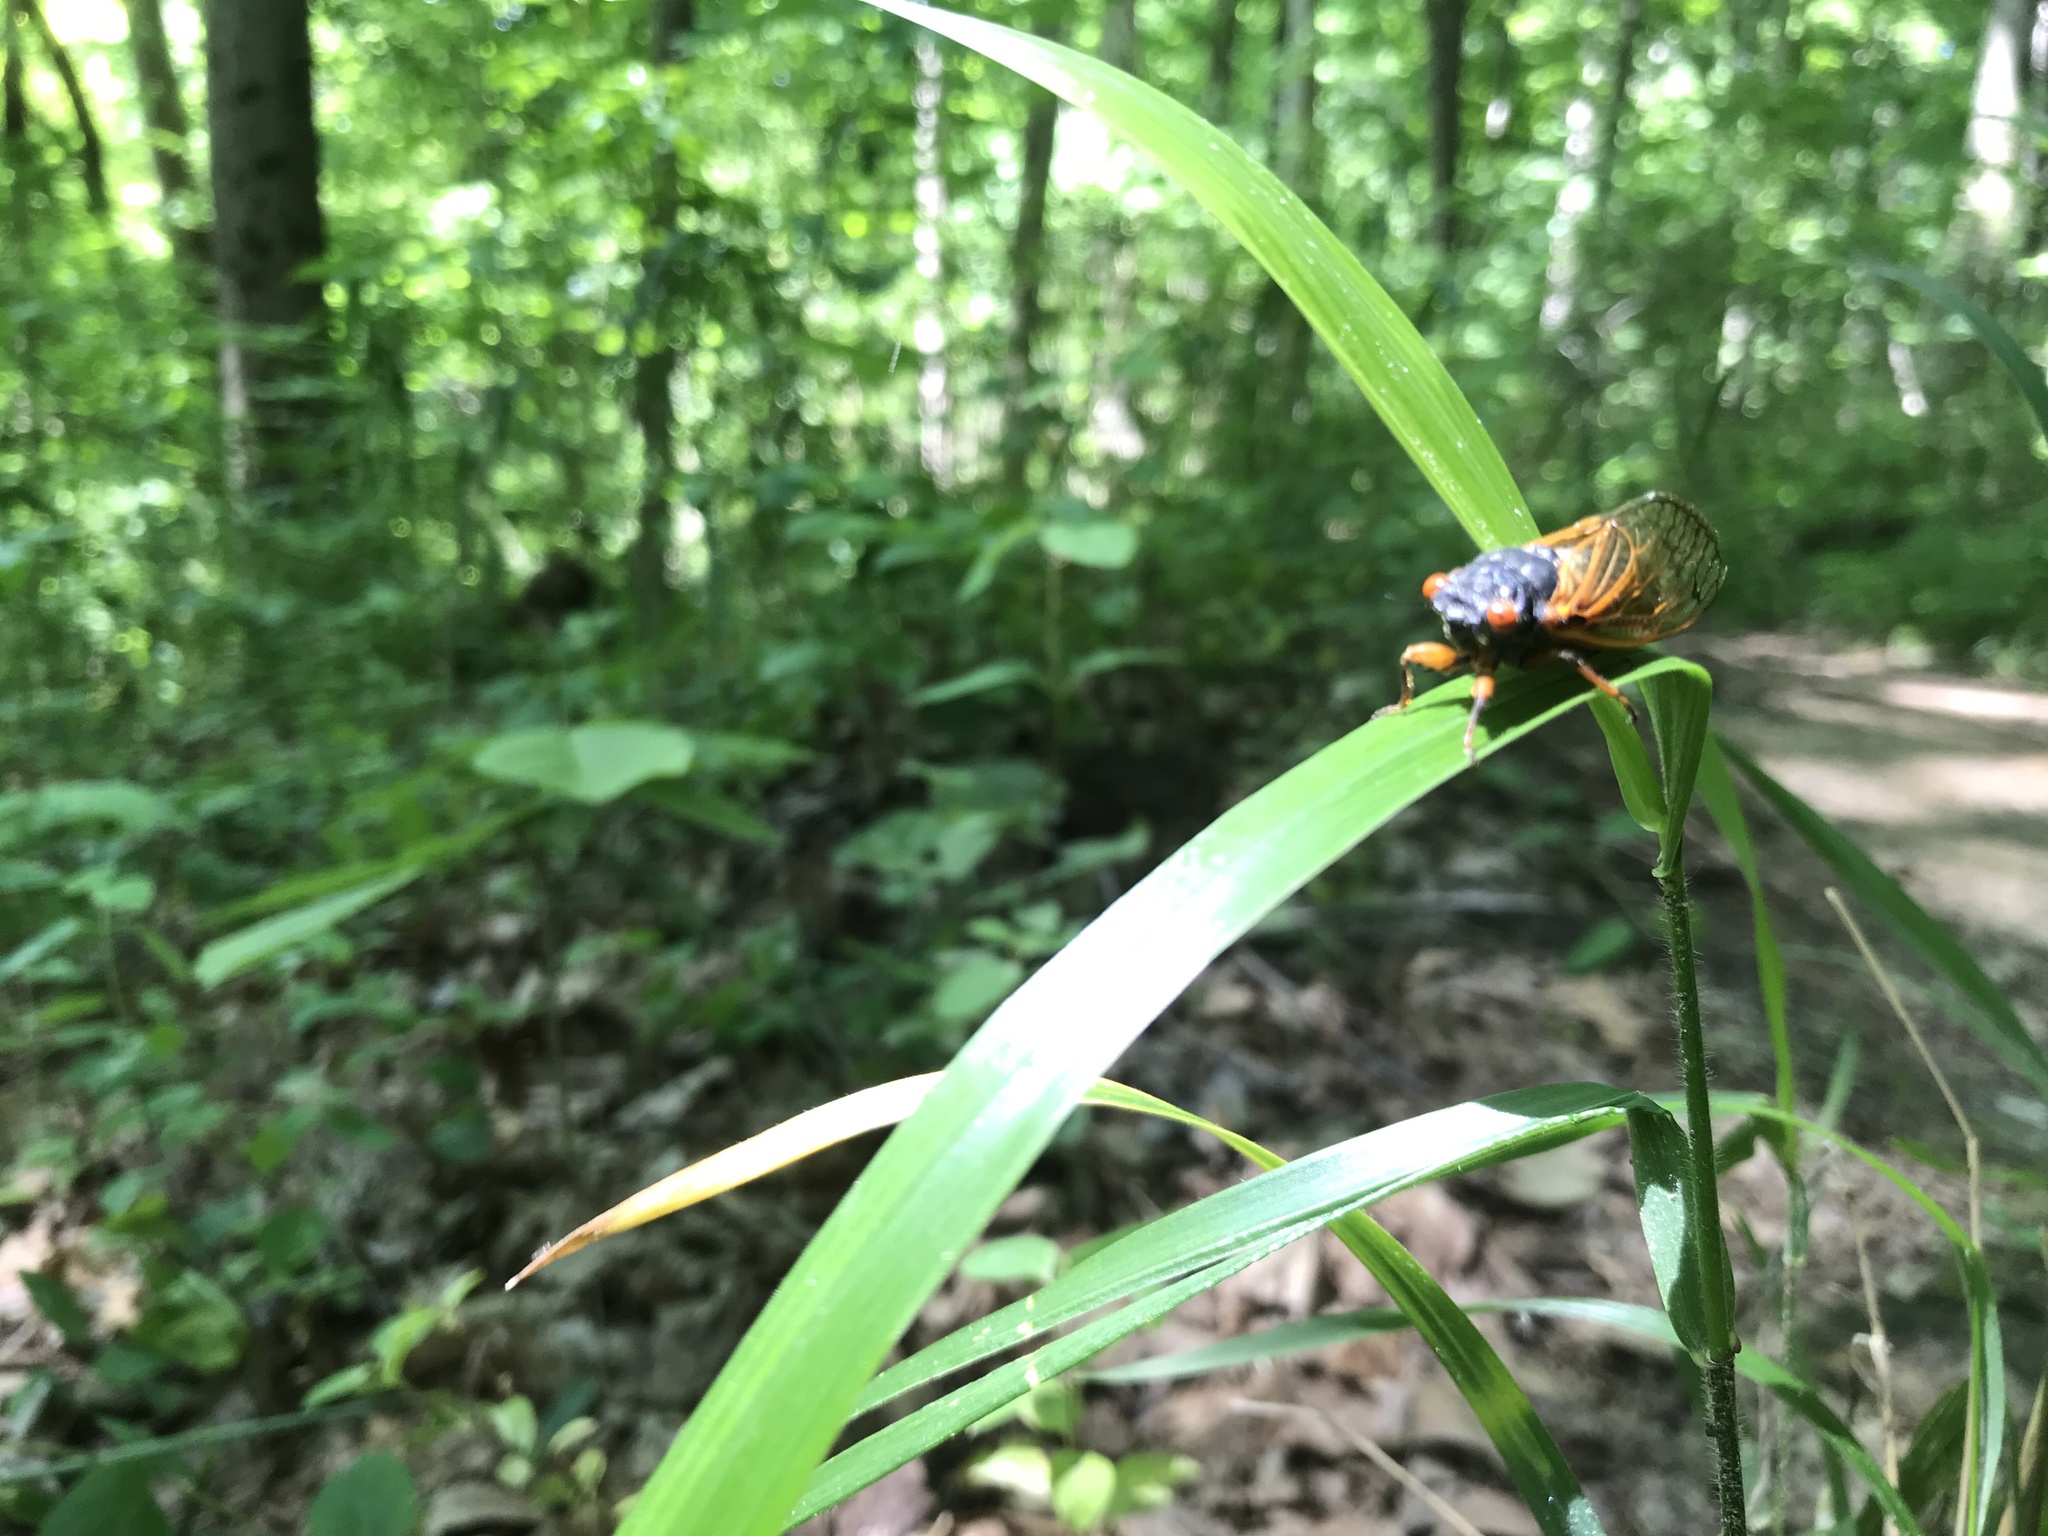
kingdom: Animalia
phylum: Arthropoda
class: Insecta
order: Hemiptera
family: Cicadidae
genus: Magicicada
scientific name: Magicicada
